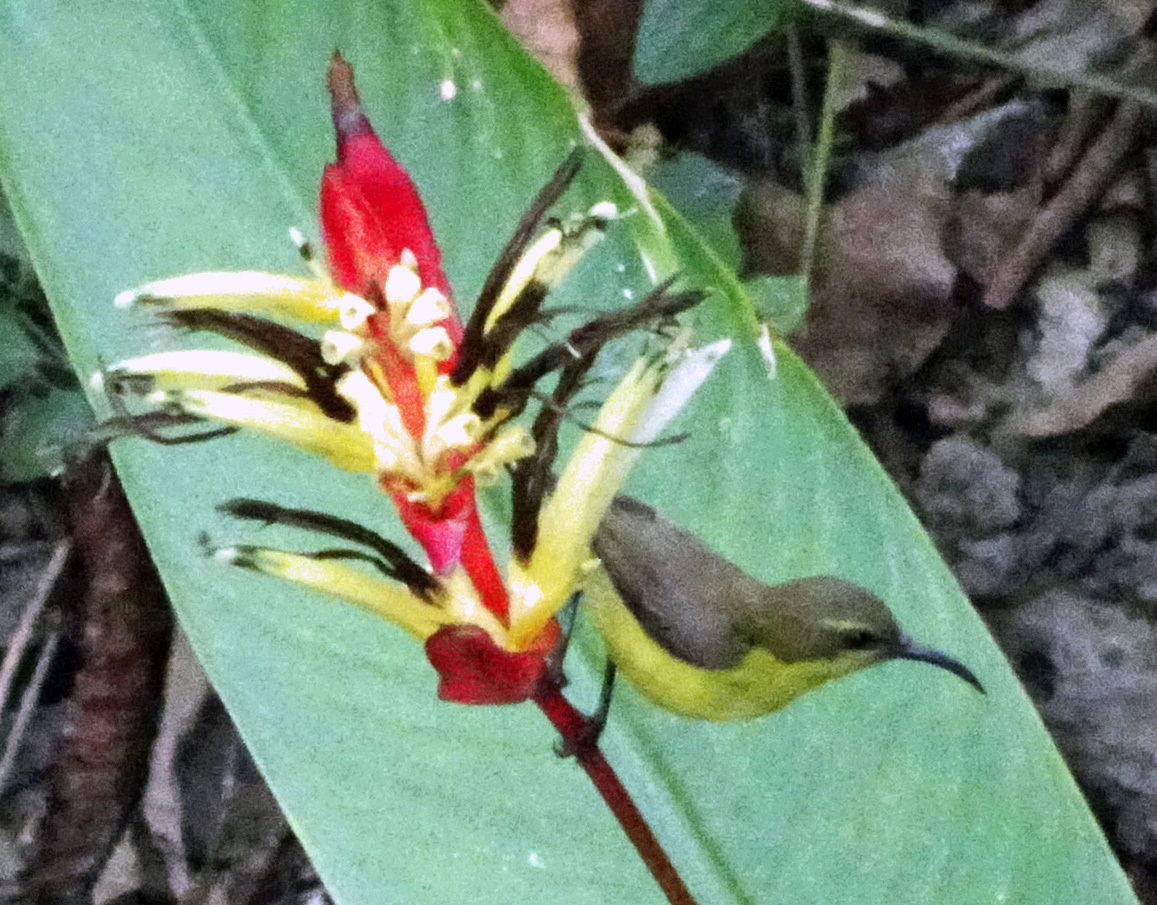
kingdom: Animalia
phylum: Chordata
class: Aves
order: Passeriformes
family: Nectariniidae
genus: Cinnyris
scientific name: Cinnyris
